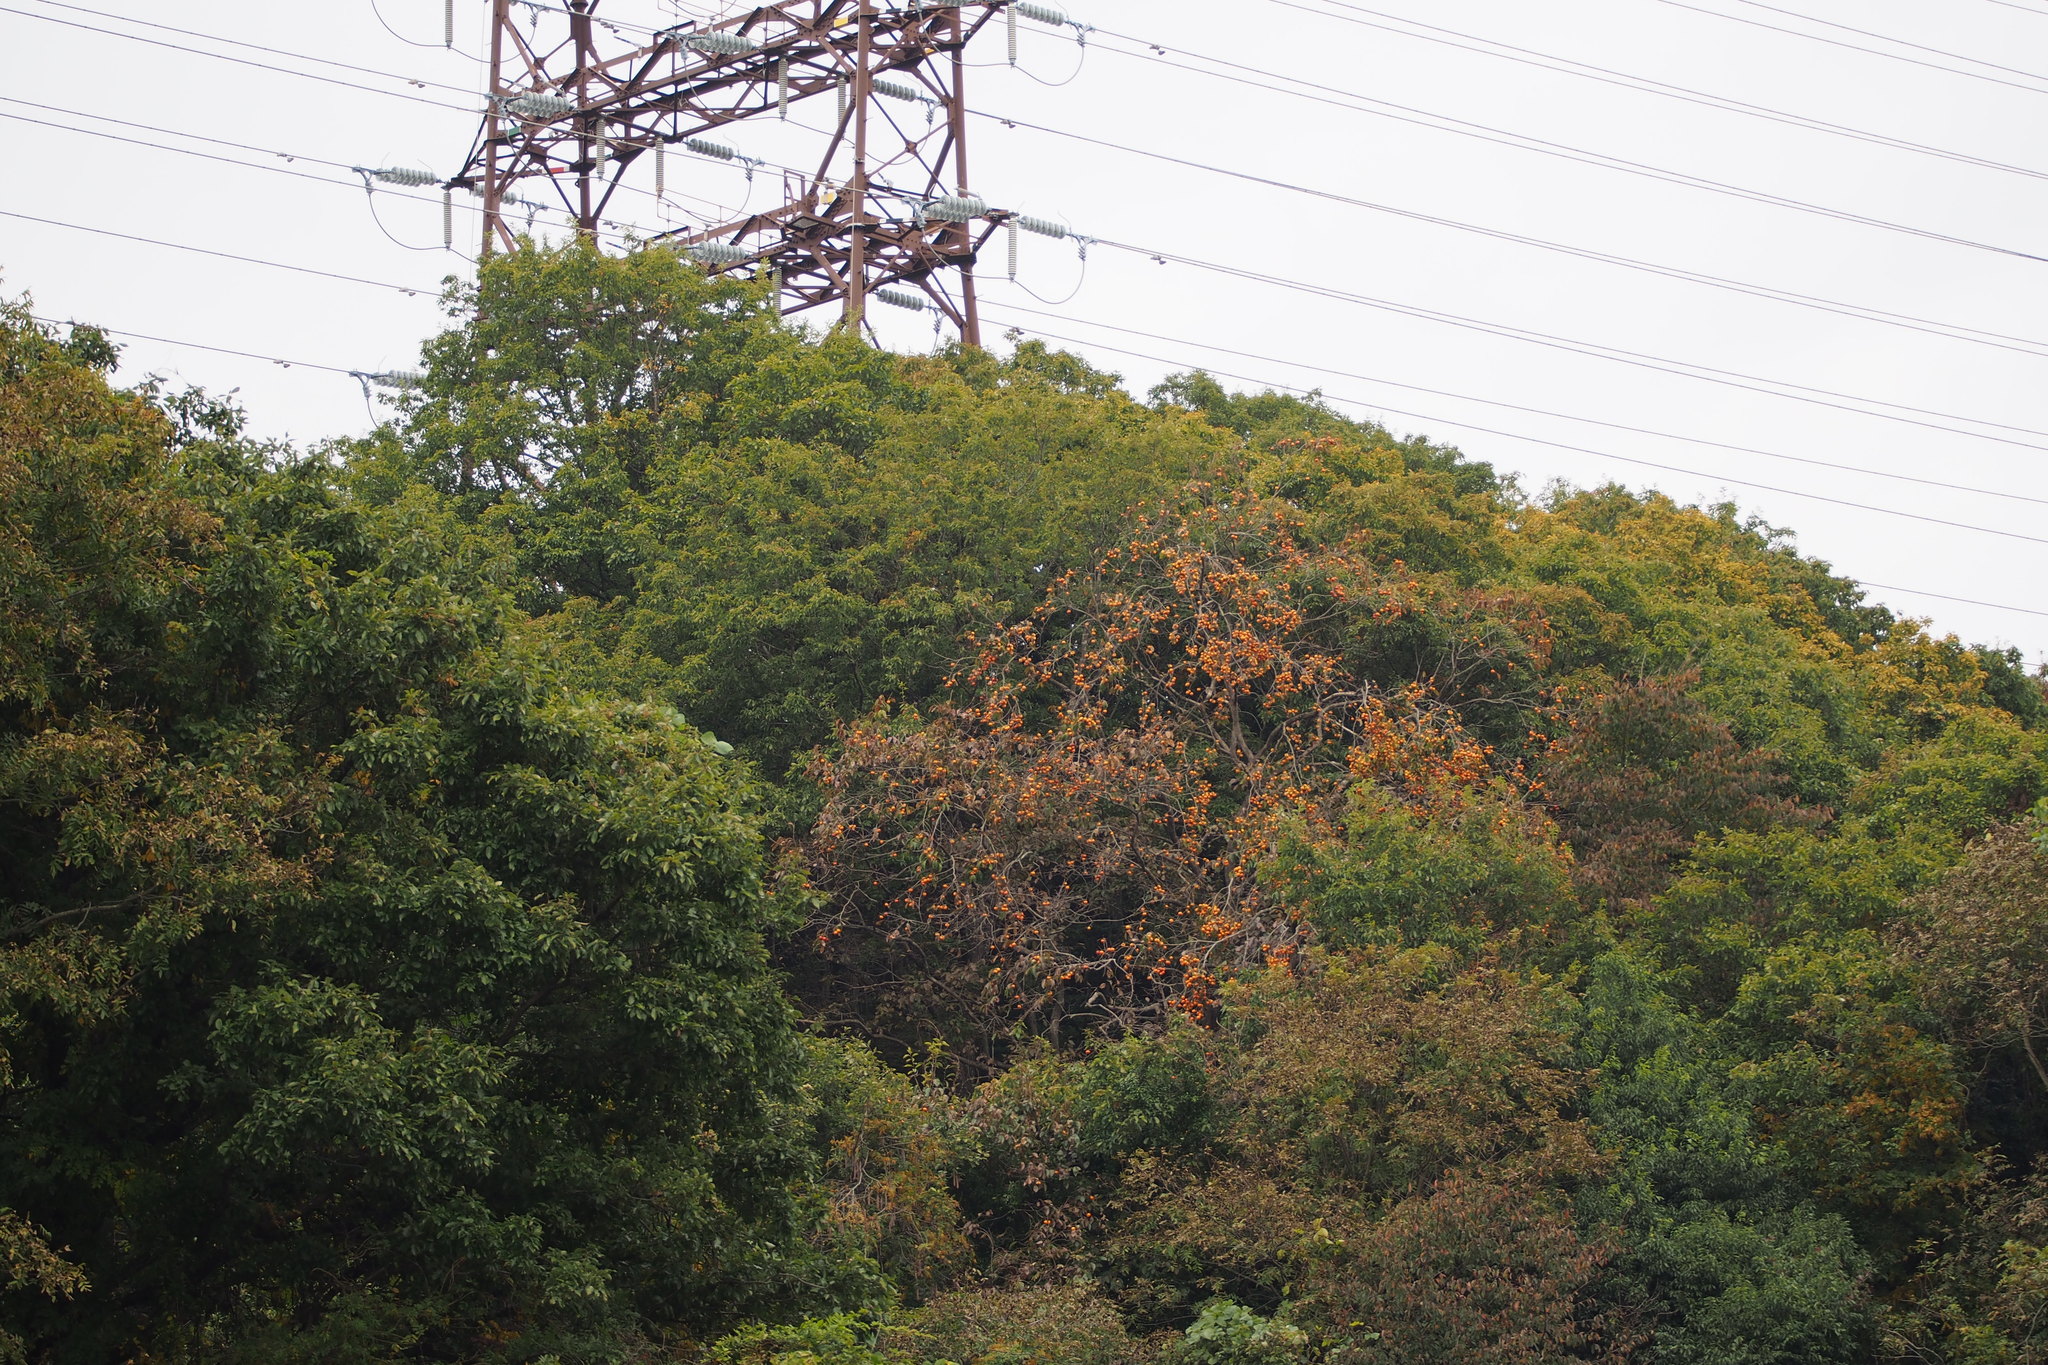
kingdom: Plantae
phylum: Tracheophyta
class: Magnoliopsida
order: Ericales
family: Ebenaceae
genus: Diospyros
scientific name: Diospyros kaki
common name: Persimmon
